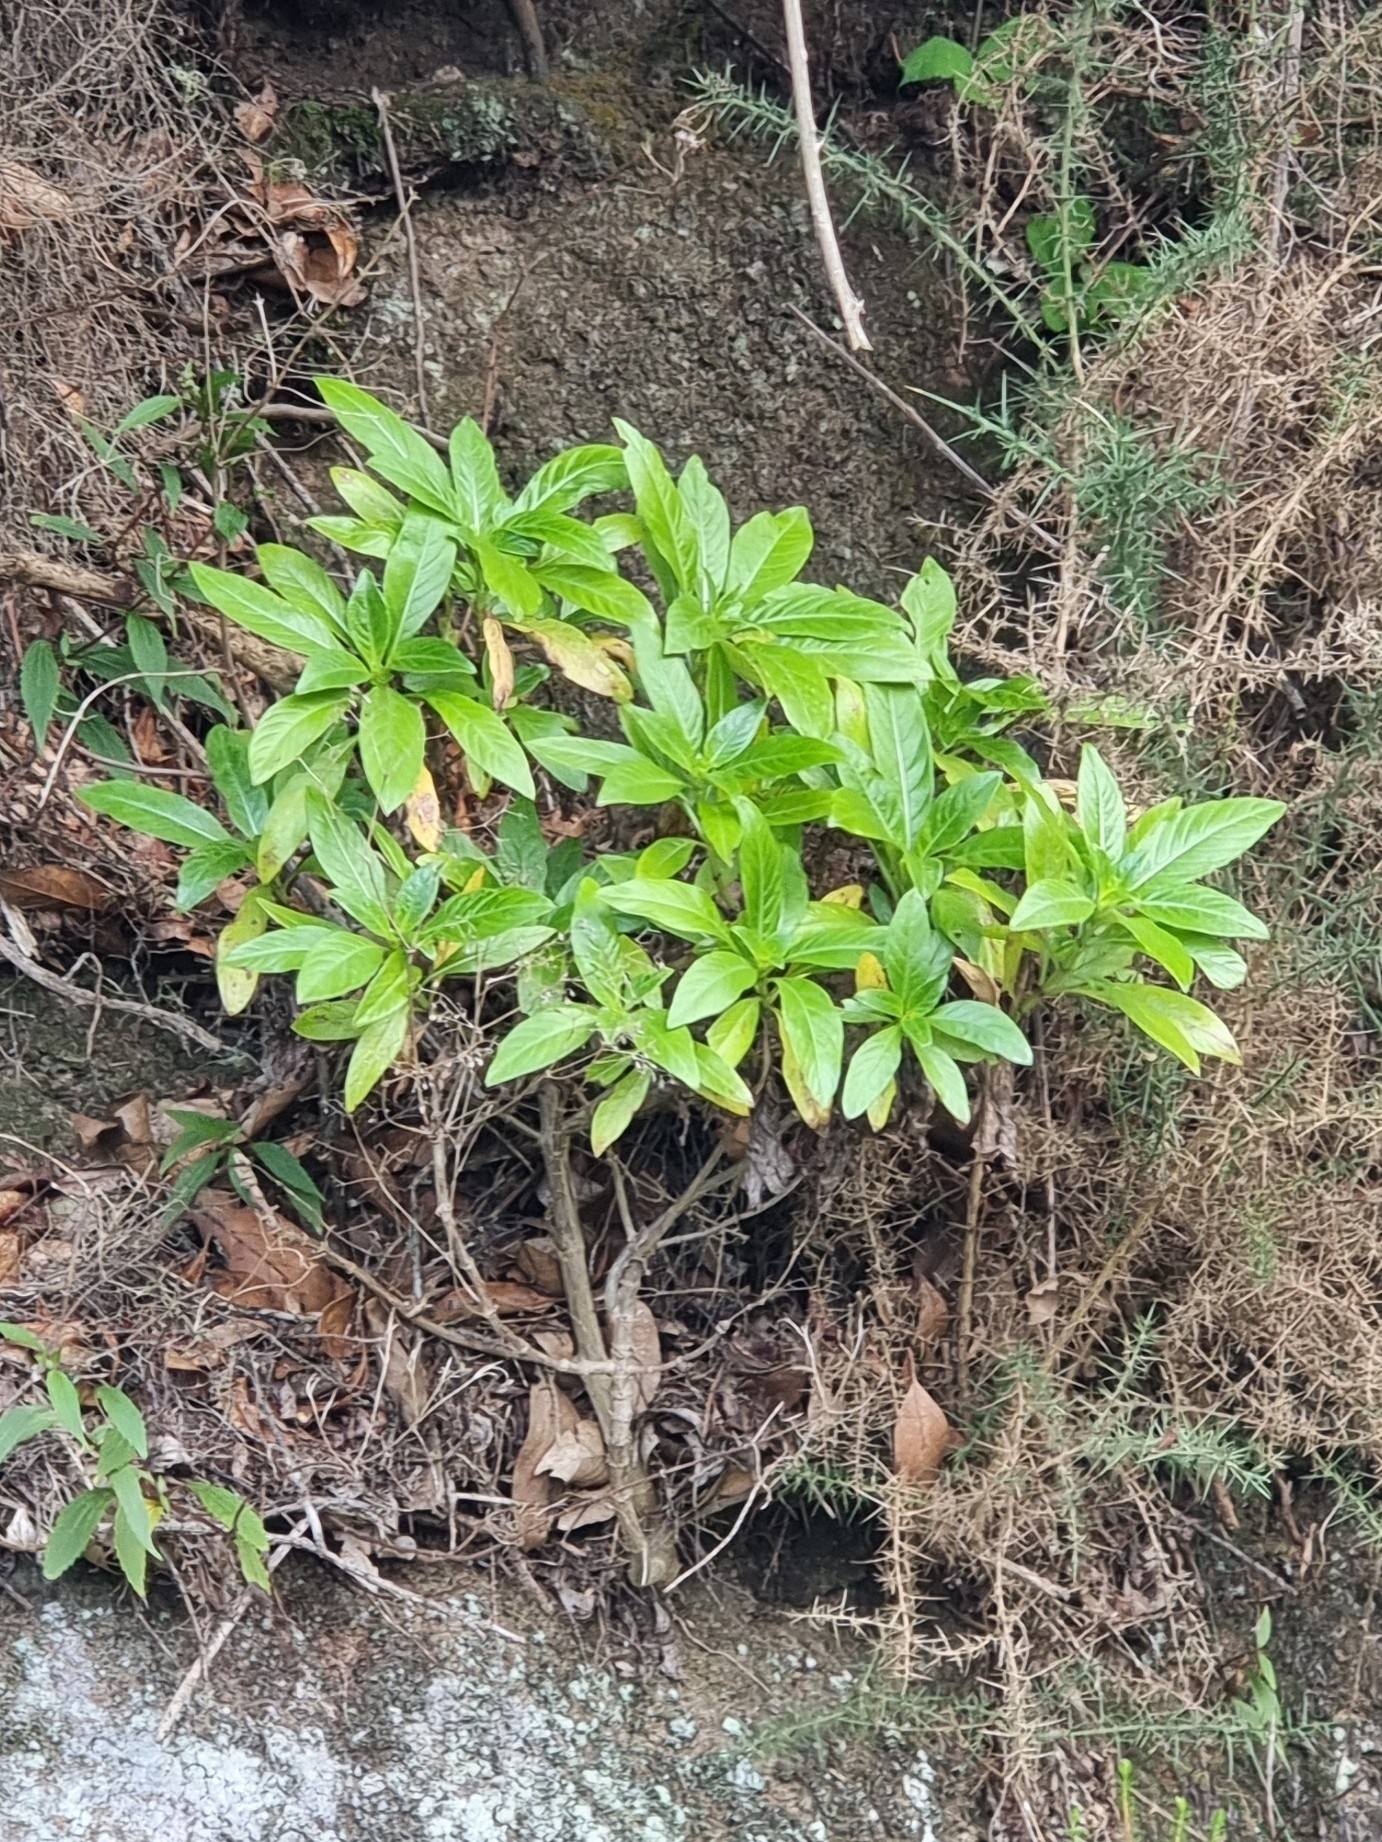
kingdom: Plantae
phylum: Tracheophyta
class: Magnoliopsida
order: Gentianales
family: Rubiaceae
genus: Phyllis
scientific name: Phyllis nobla
